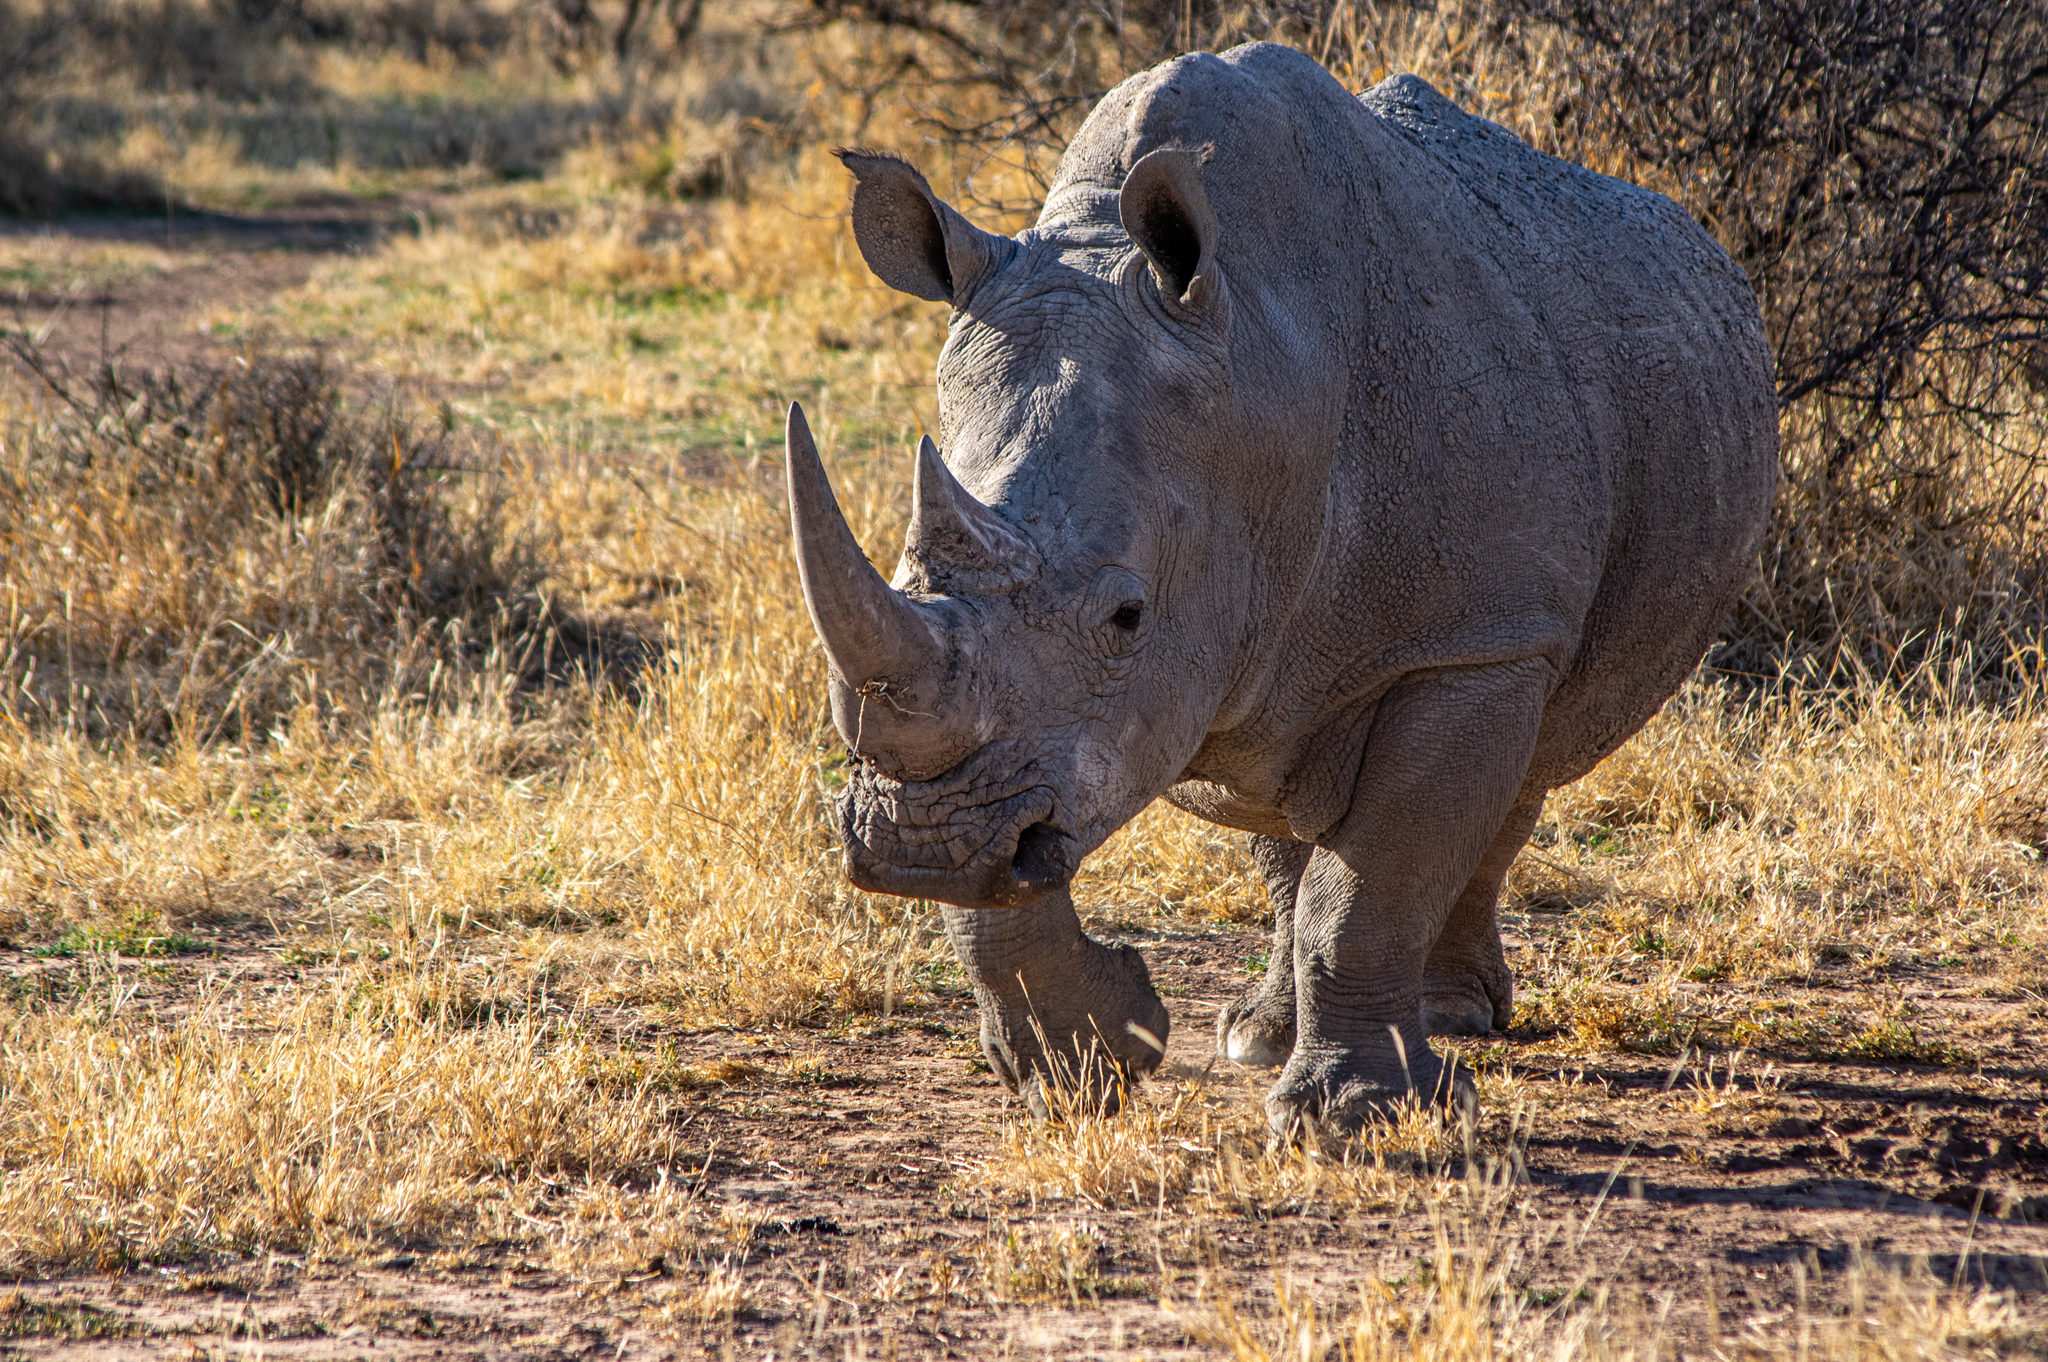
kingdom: Animalia
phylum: Chordata
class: Mammalia
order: Perissodactyla
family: Rhinocerotidae
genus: Ceratotherium
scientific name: Ceratotherium simum
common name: White rhinoceros
